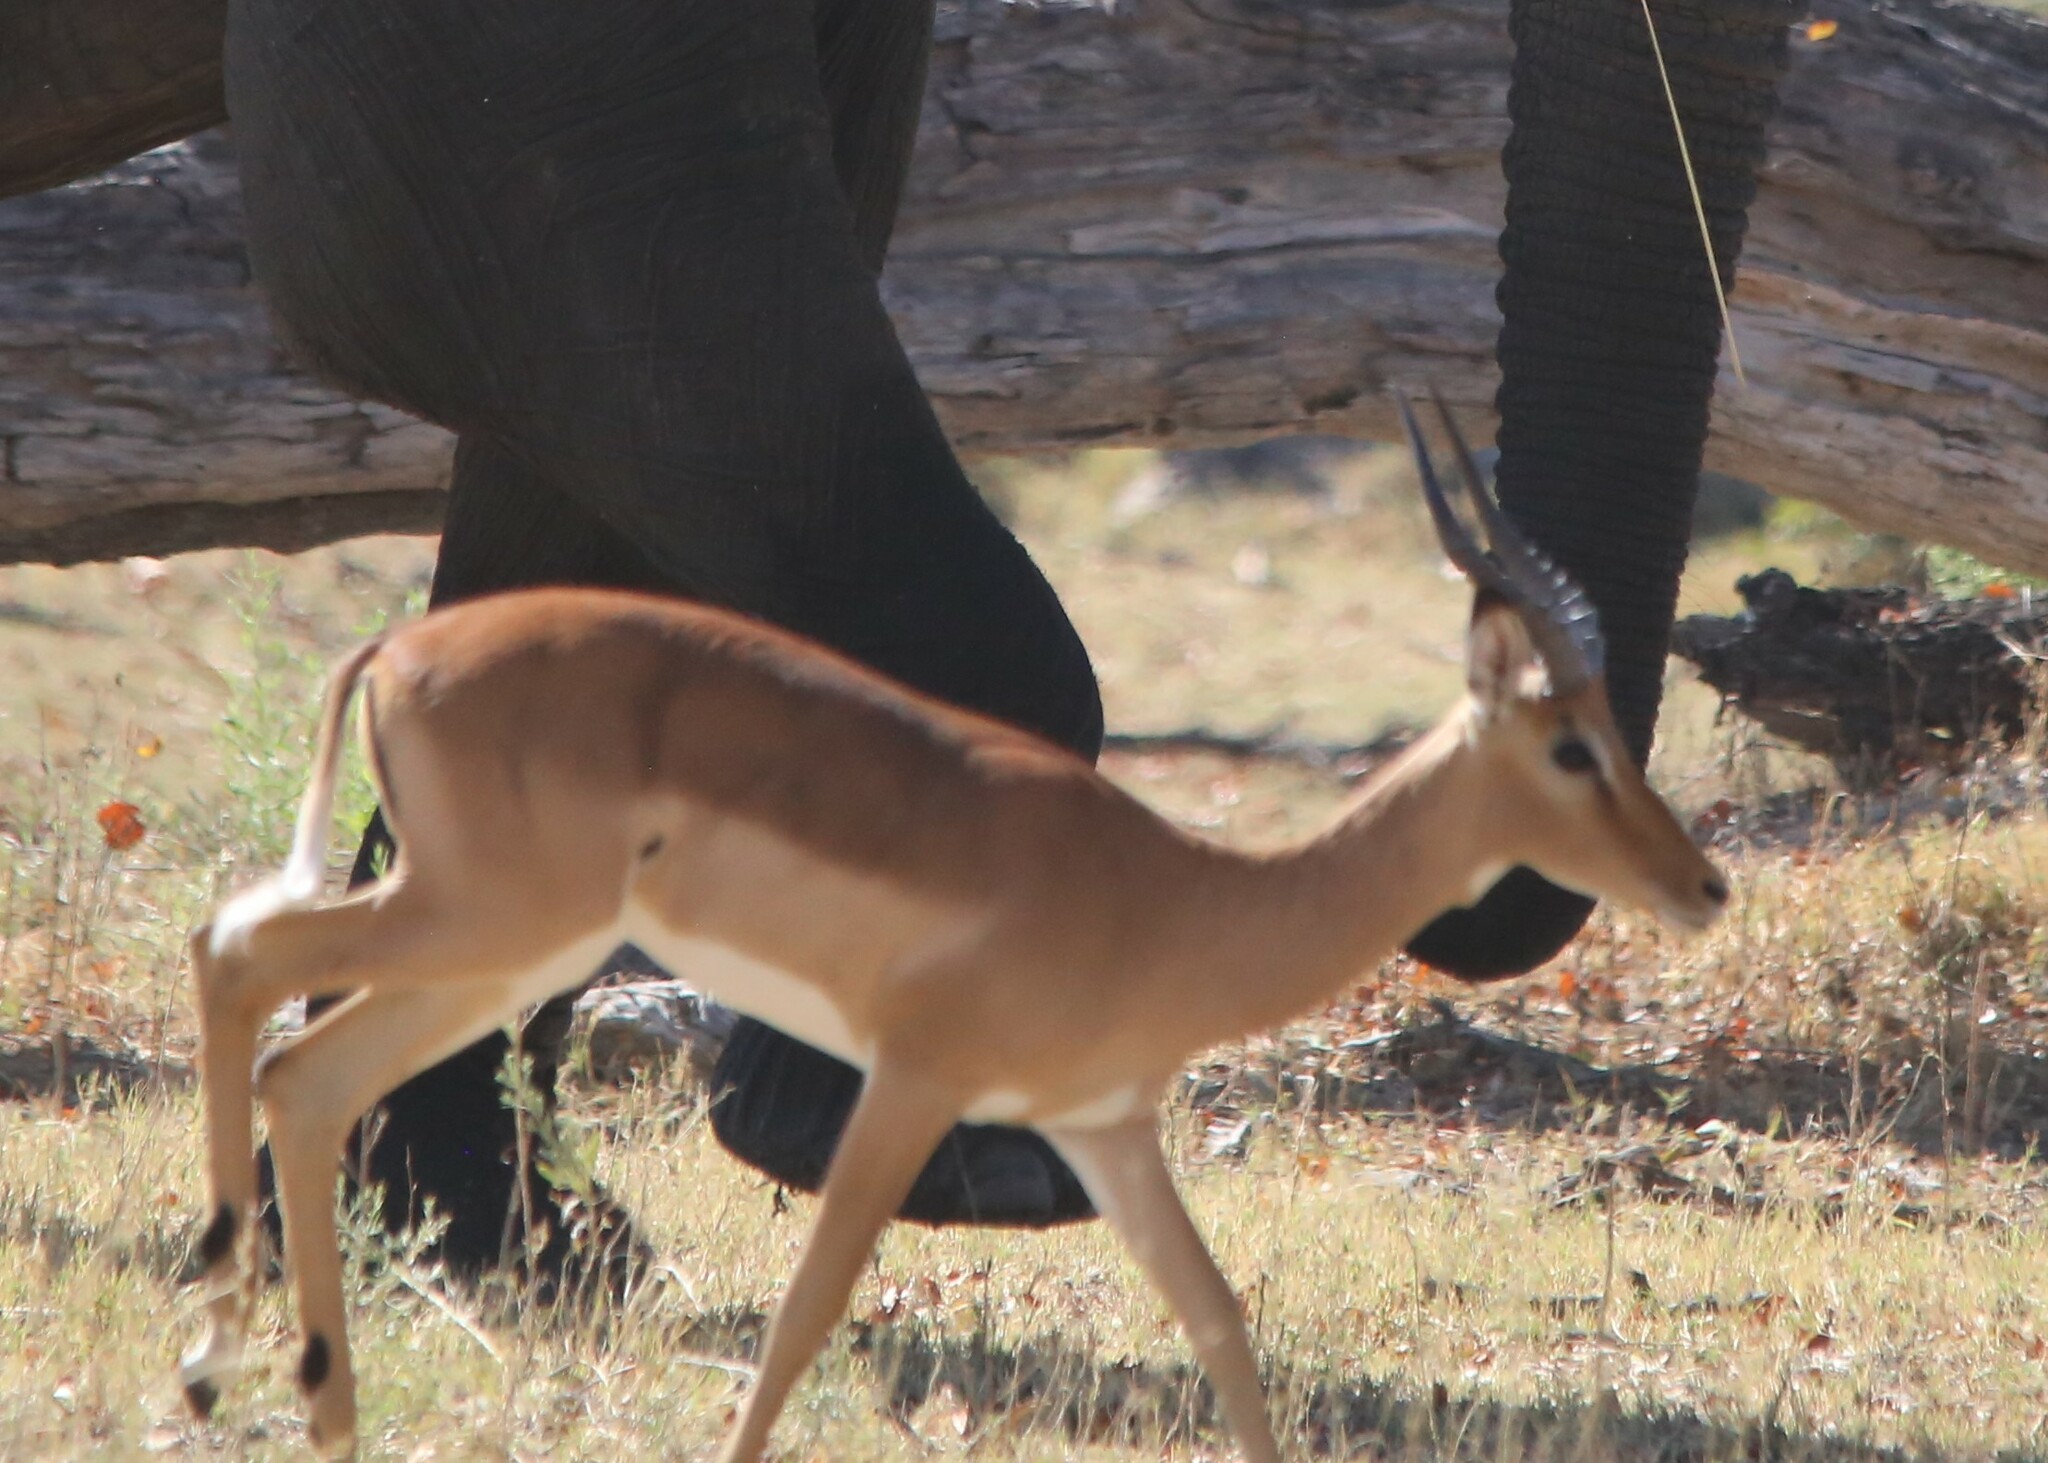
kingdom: Animalia
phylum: Chordata
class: Mammalia
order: Artiodactyla
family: Bovidae
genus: Aepyceros
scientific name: Aepyceros melampus
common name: Impala
